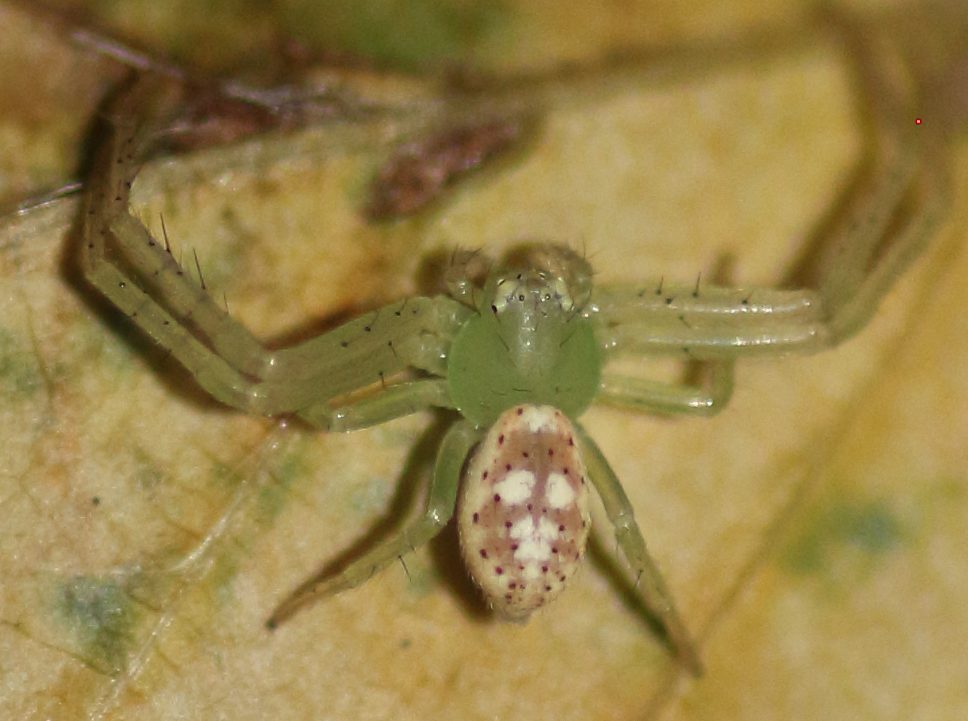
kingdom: Animalia
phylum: Arthropoda
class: Arachnida
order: Araneae
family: Thomisidae
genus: Diaea
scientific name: Diaea livens
